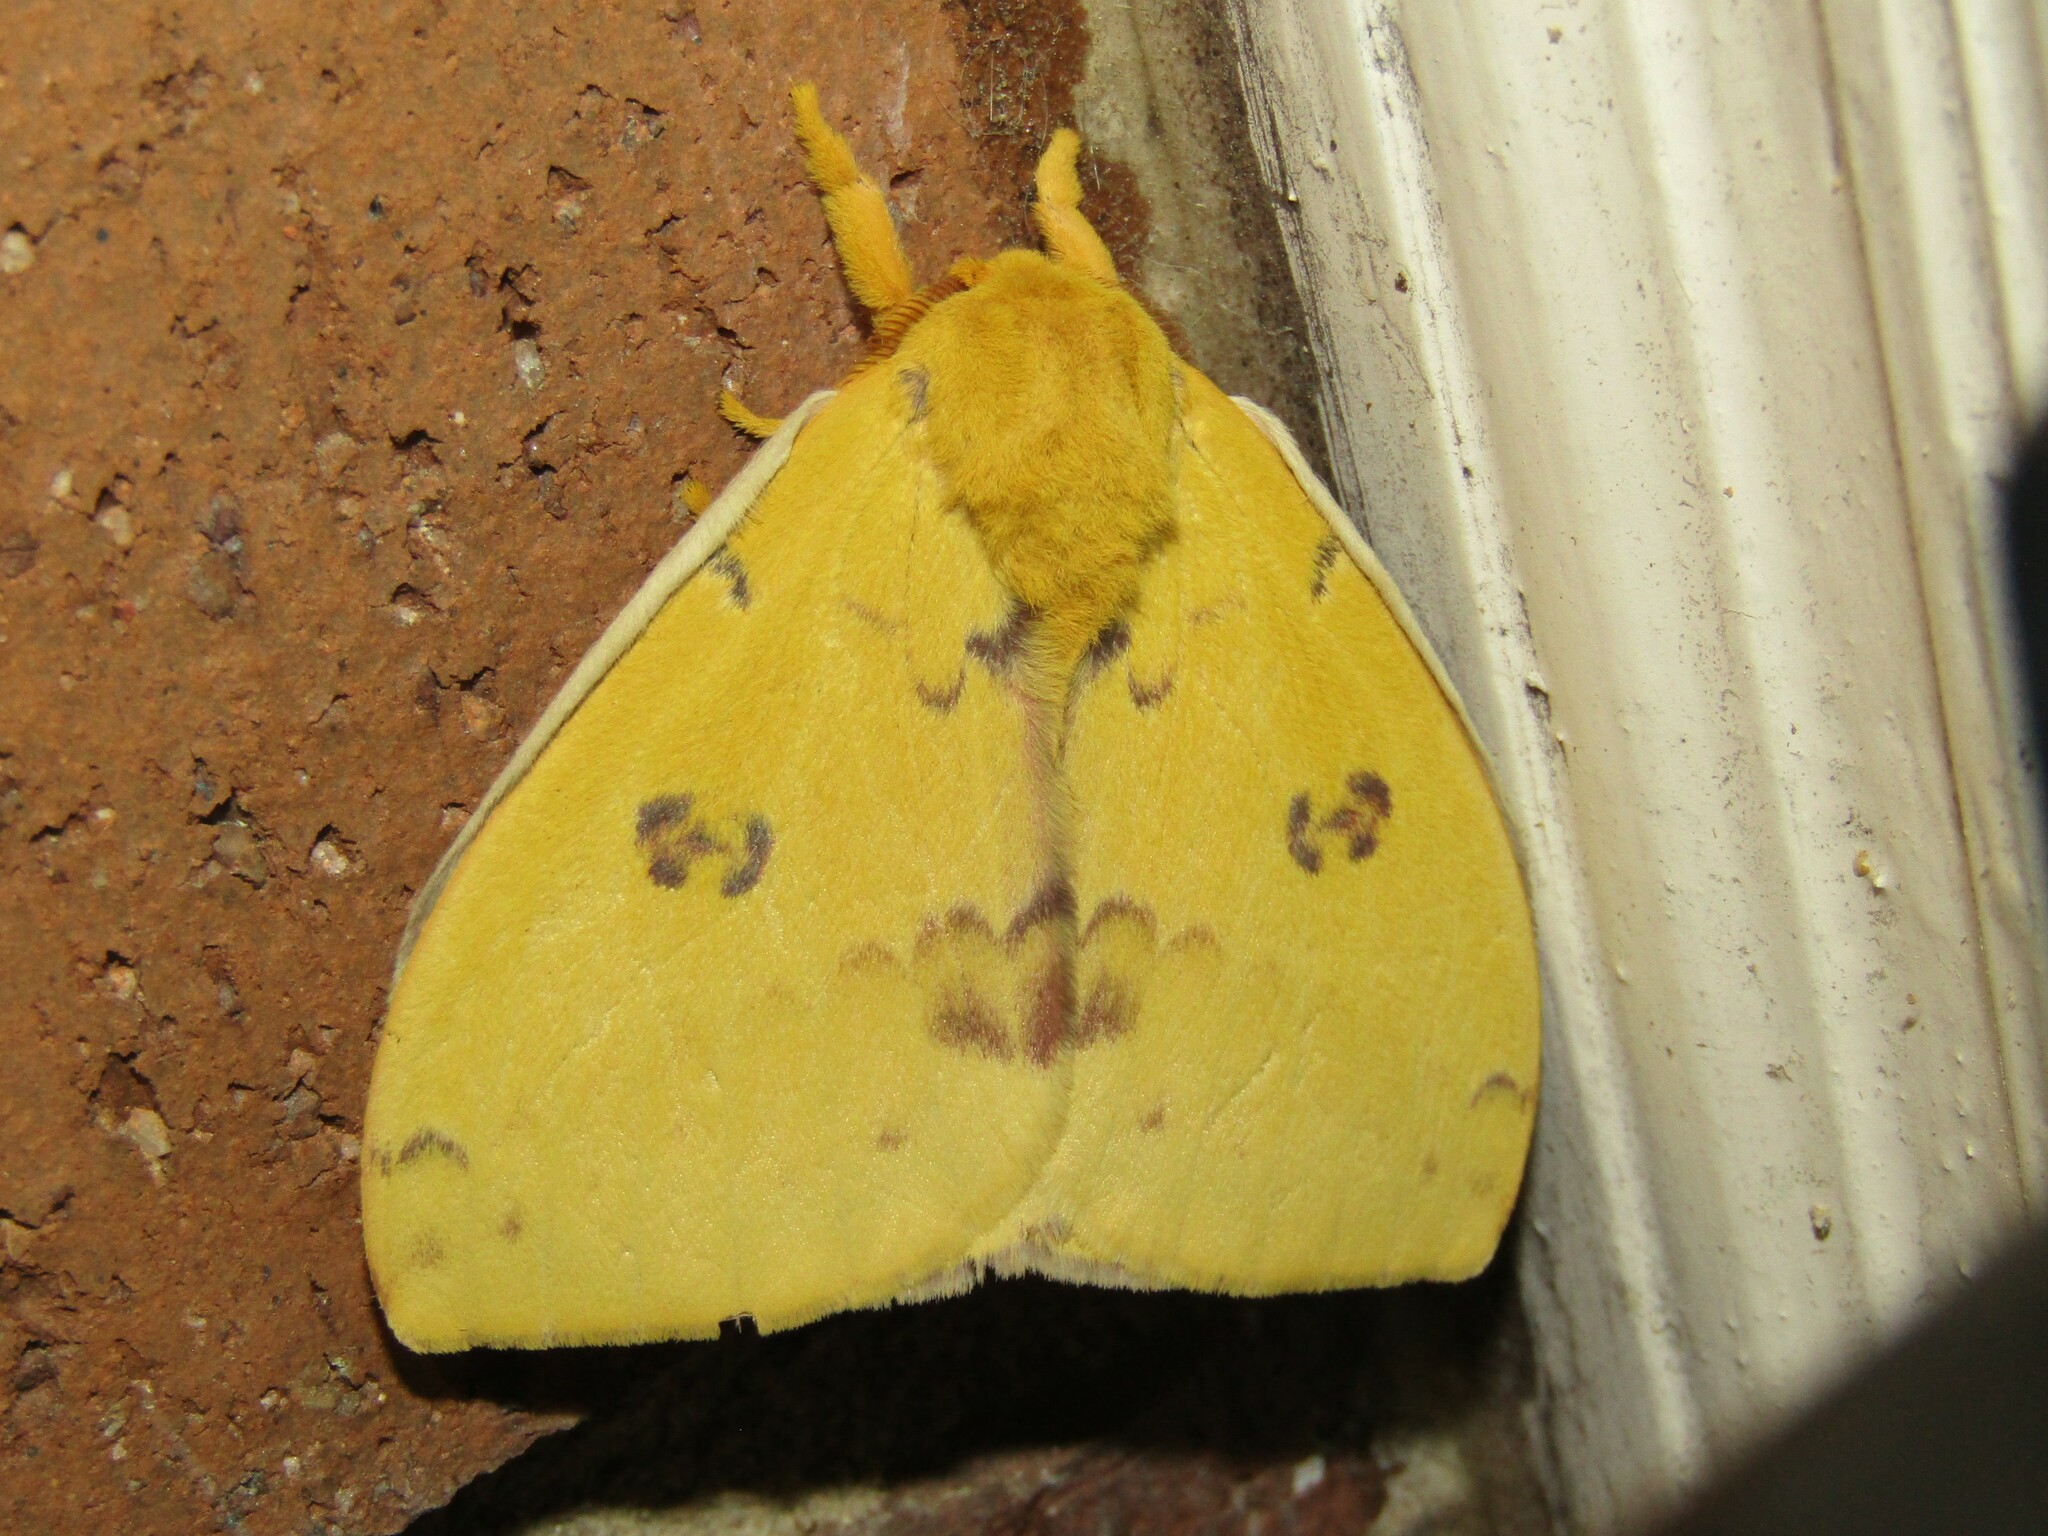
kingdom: Animalia
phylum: Arthropoda
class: Insecta
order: Lepidoptera
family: Saturniidae
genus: Automeris
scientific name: Automeris io
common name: Io moth
